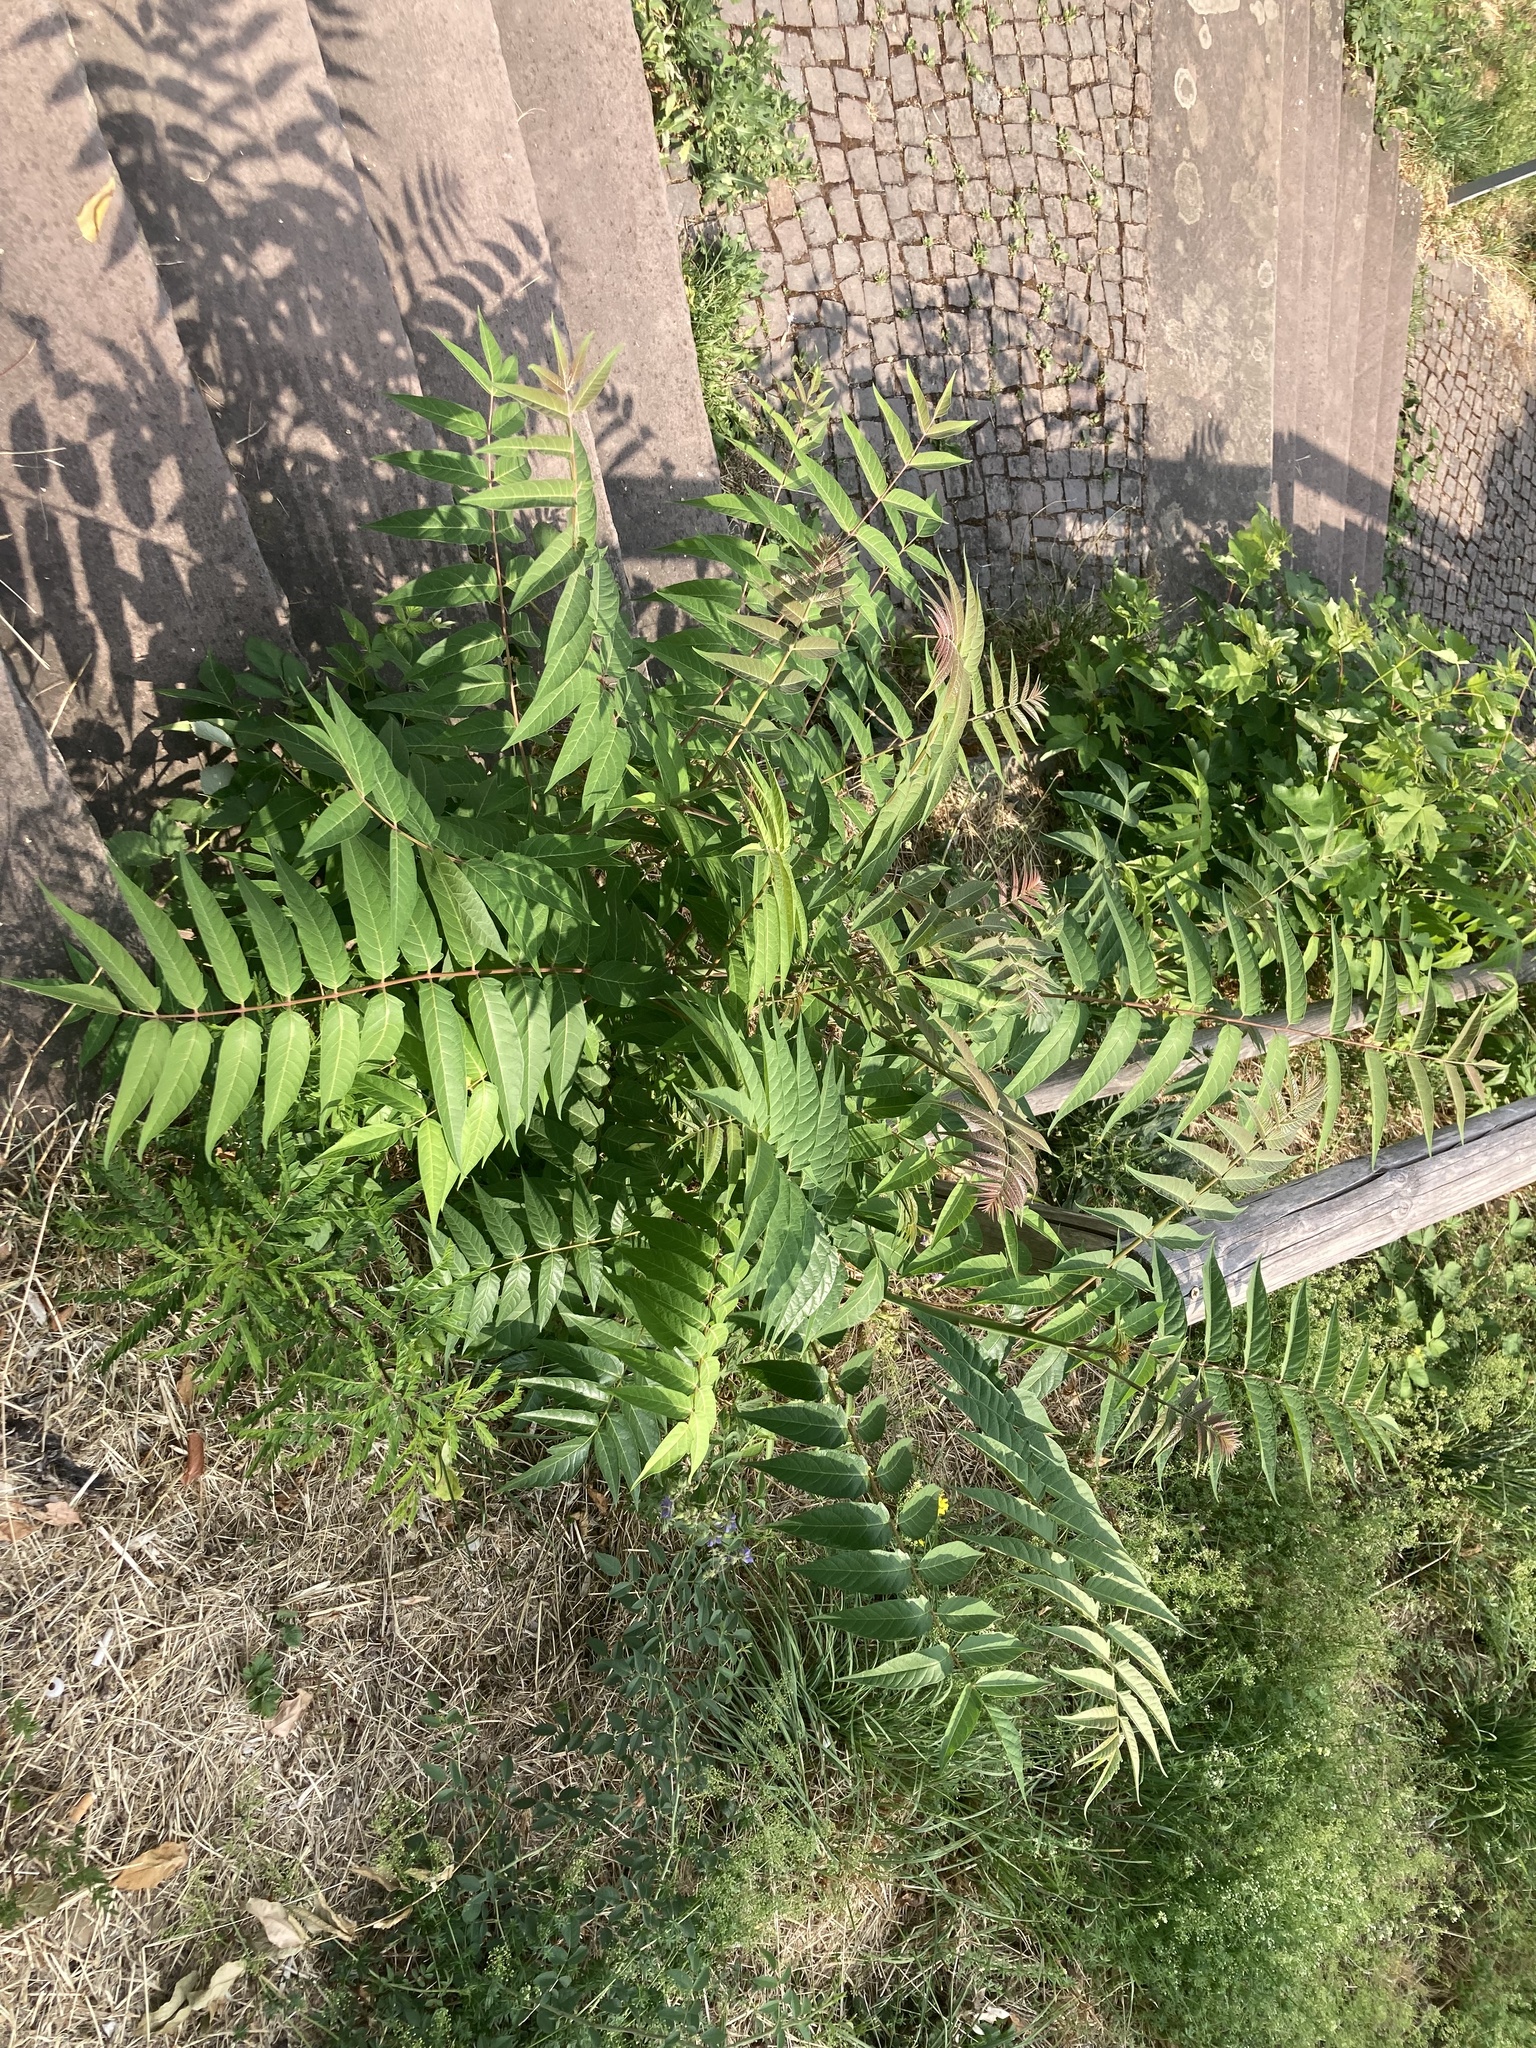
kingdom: Plantae
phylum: Tracheophyta
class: Magnoliopsida
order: Sapindales
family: Simaroubaceae
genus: Ailanthus
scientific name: Ailanthus altissima
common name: Tree-of-heaven
